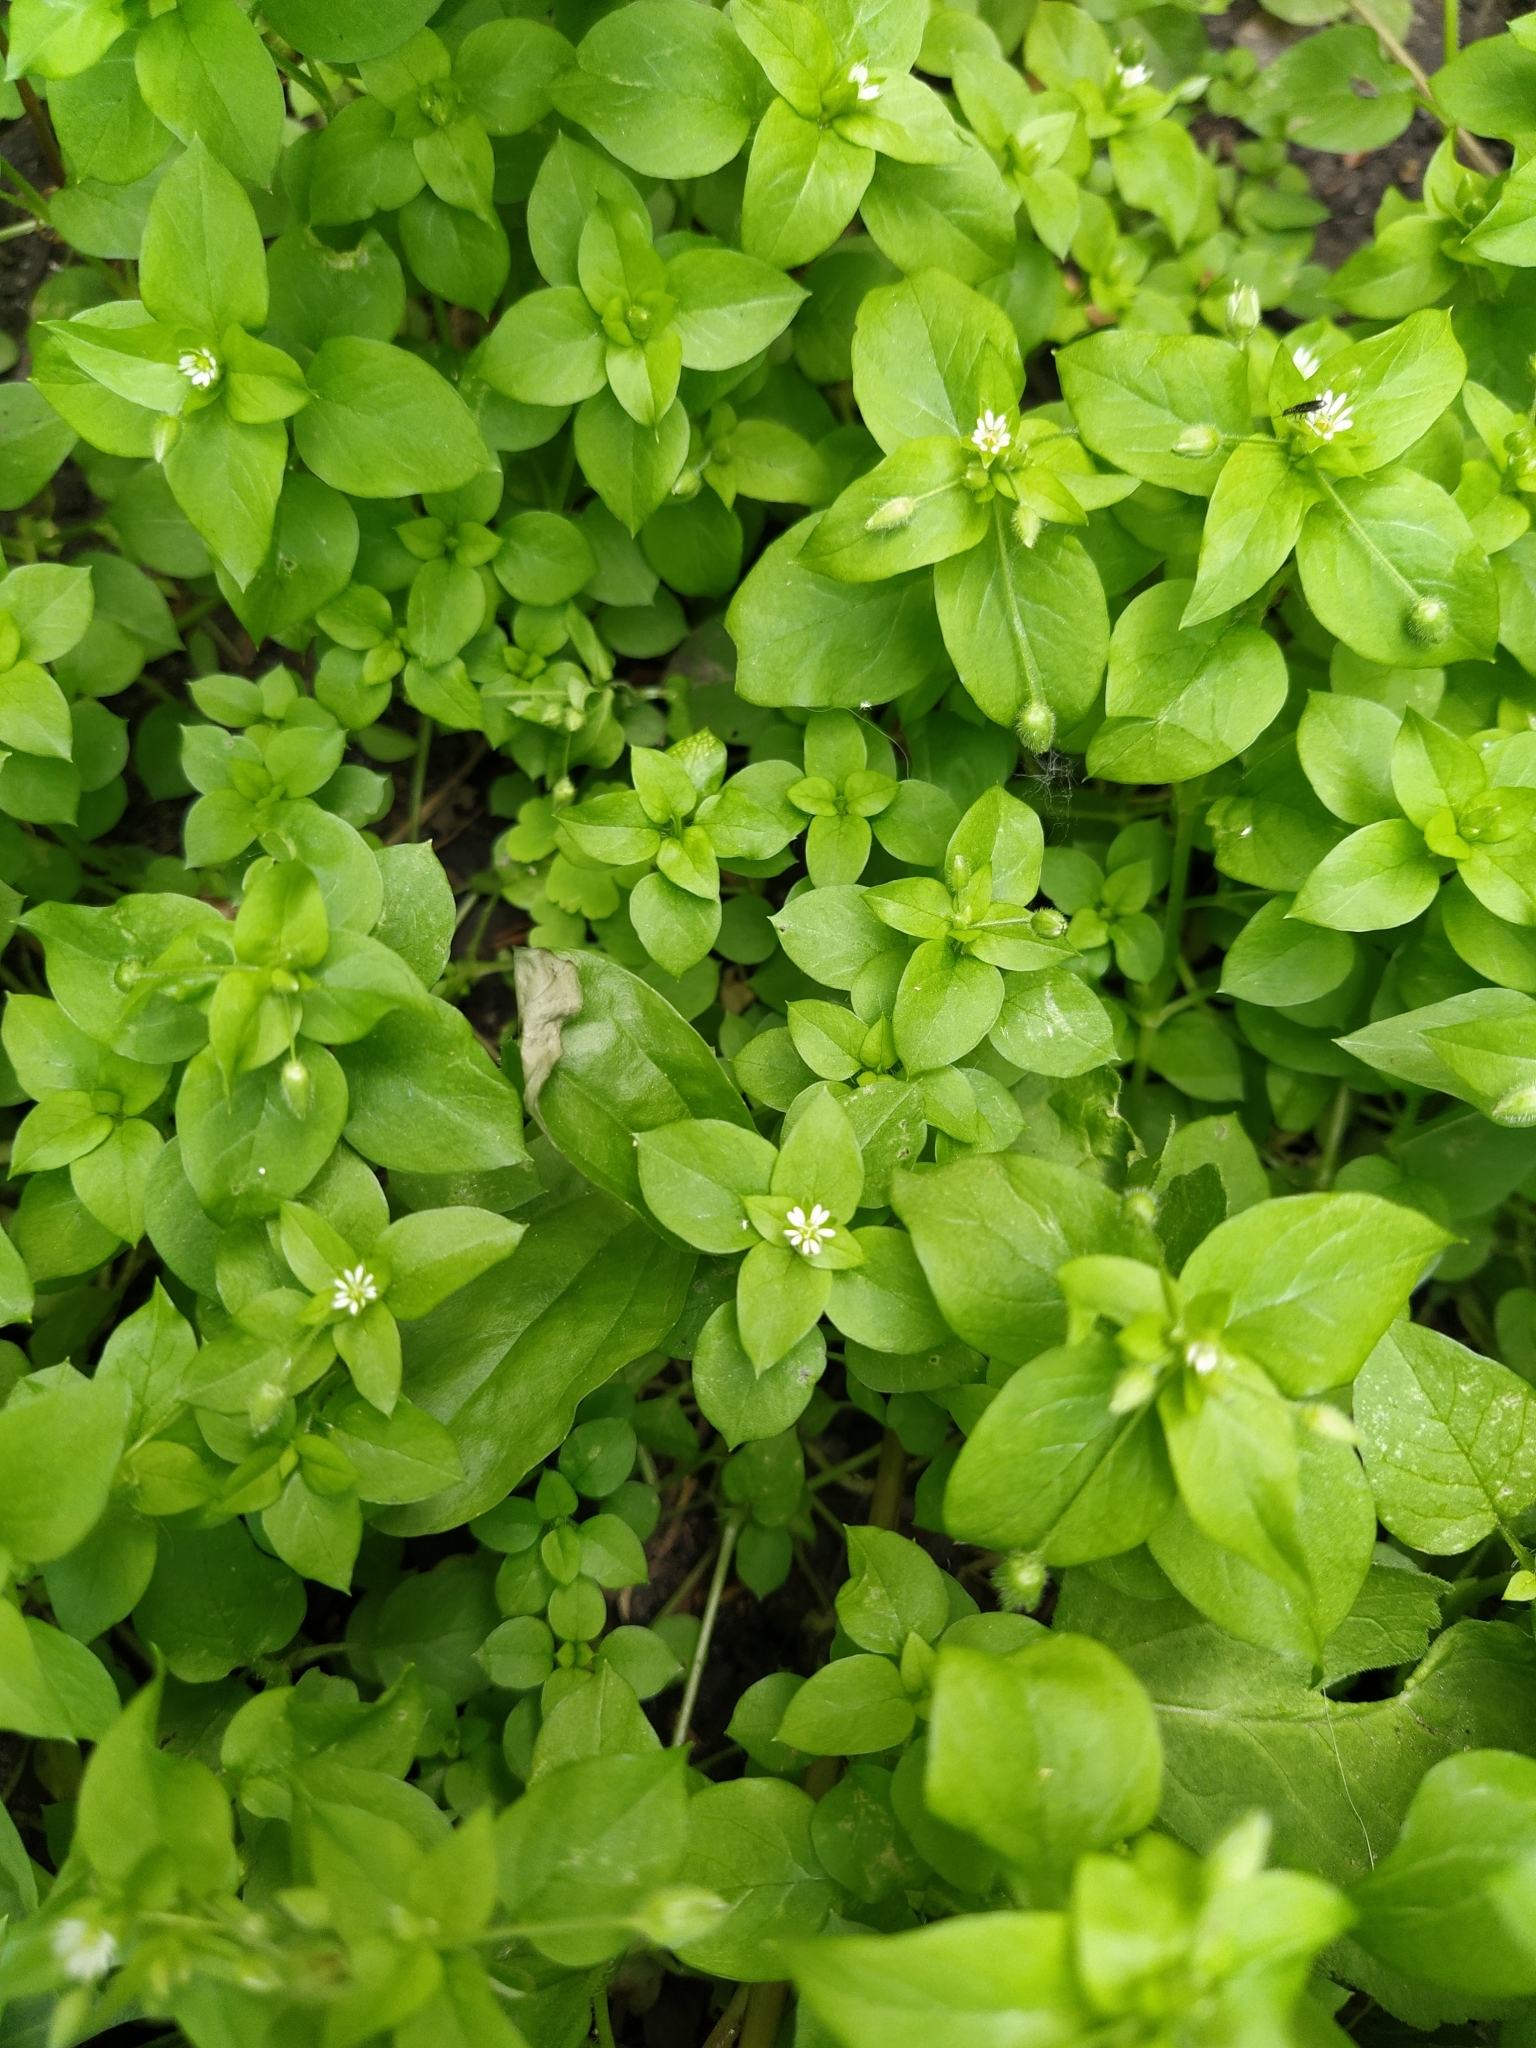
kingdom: Plantae
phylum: Tracheophyta
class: Magnoliopsida
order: Caryophyllales
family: Caryophyllaceae
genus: Stellaria
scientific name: Stellaria media
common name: Common chickweed
